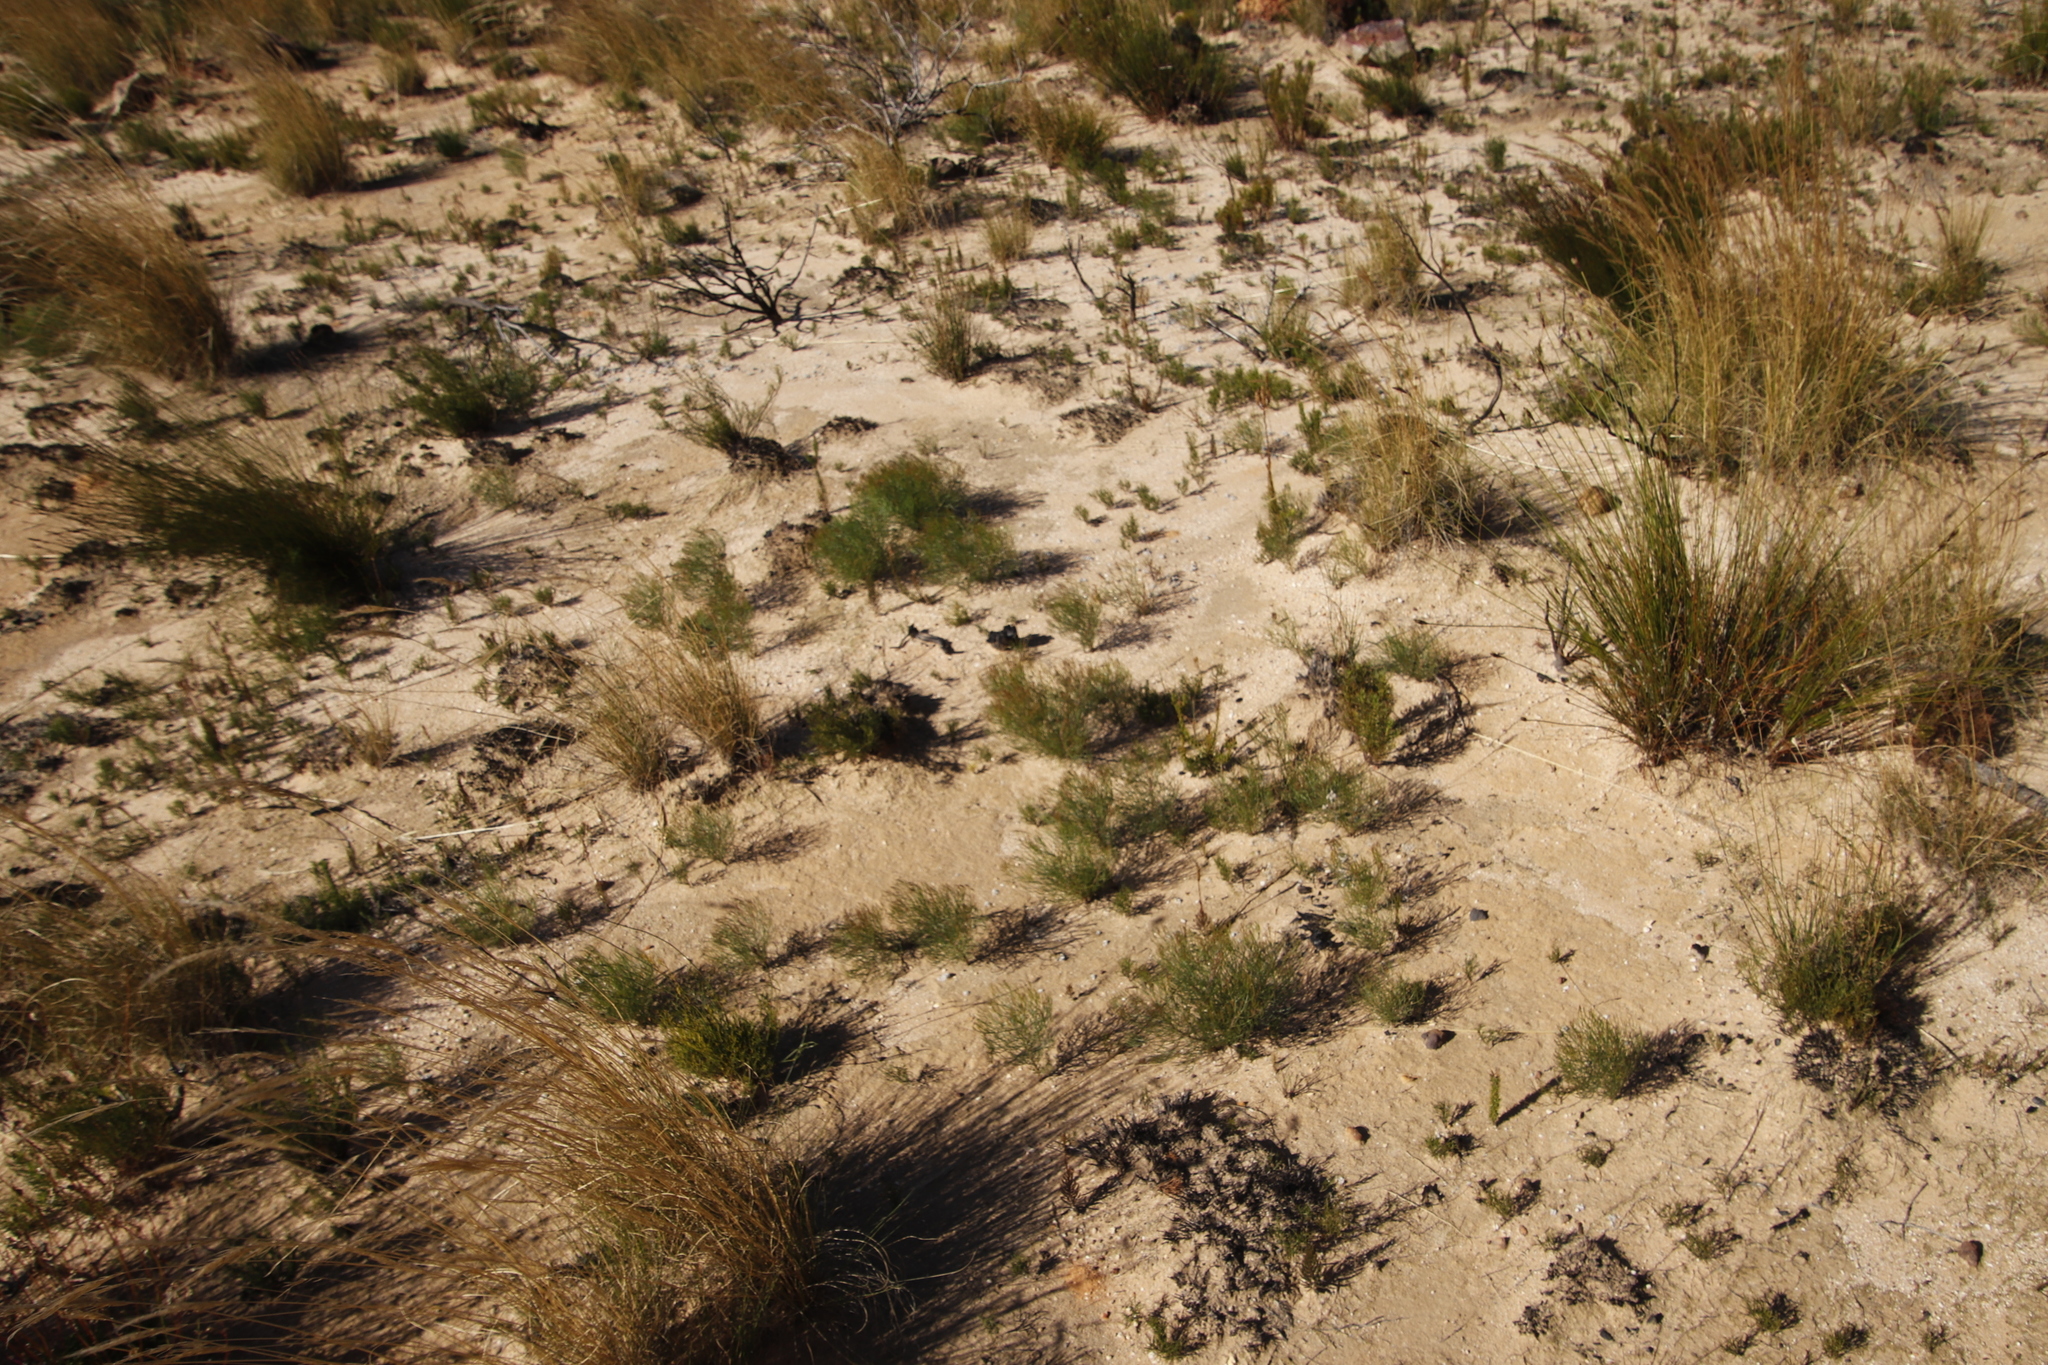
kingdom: Plantae
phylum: Tracheophyta
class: Magnoliopsida
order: Proteales
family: Proteaceae
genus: Serruria
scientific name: Serruria fasciflora
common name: Common pin spiderhead
